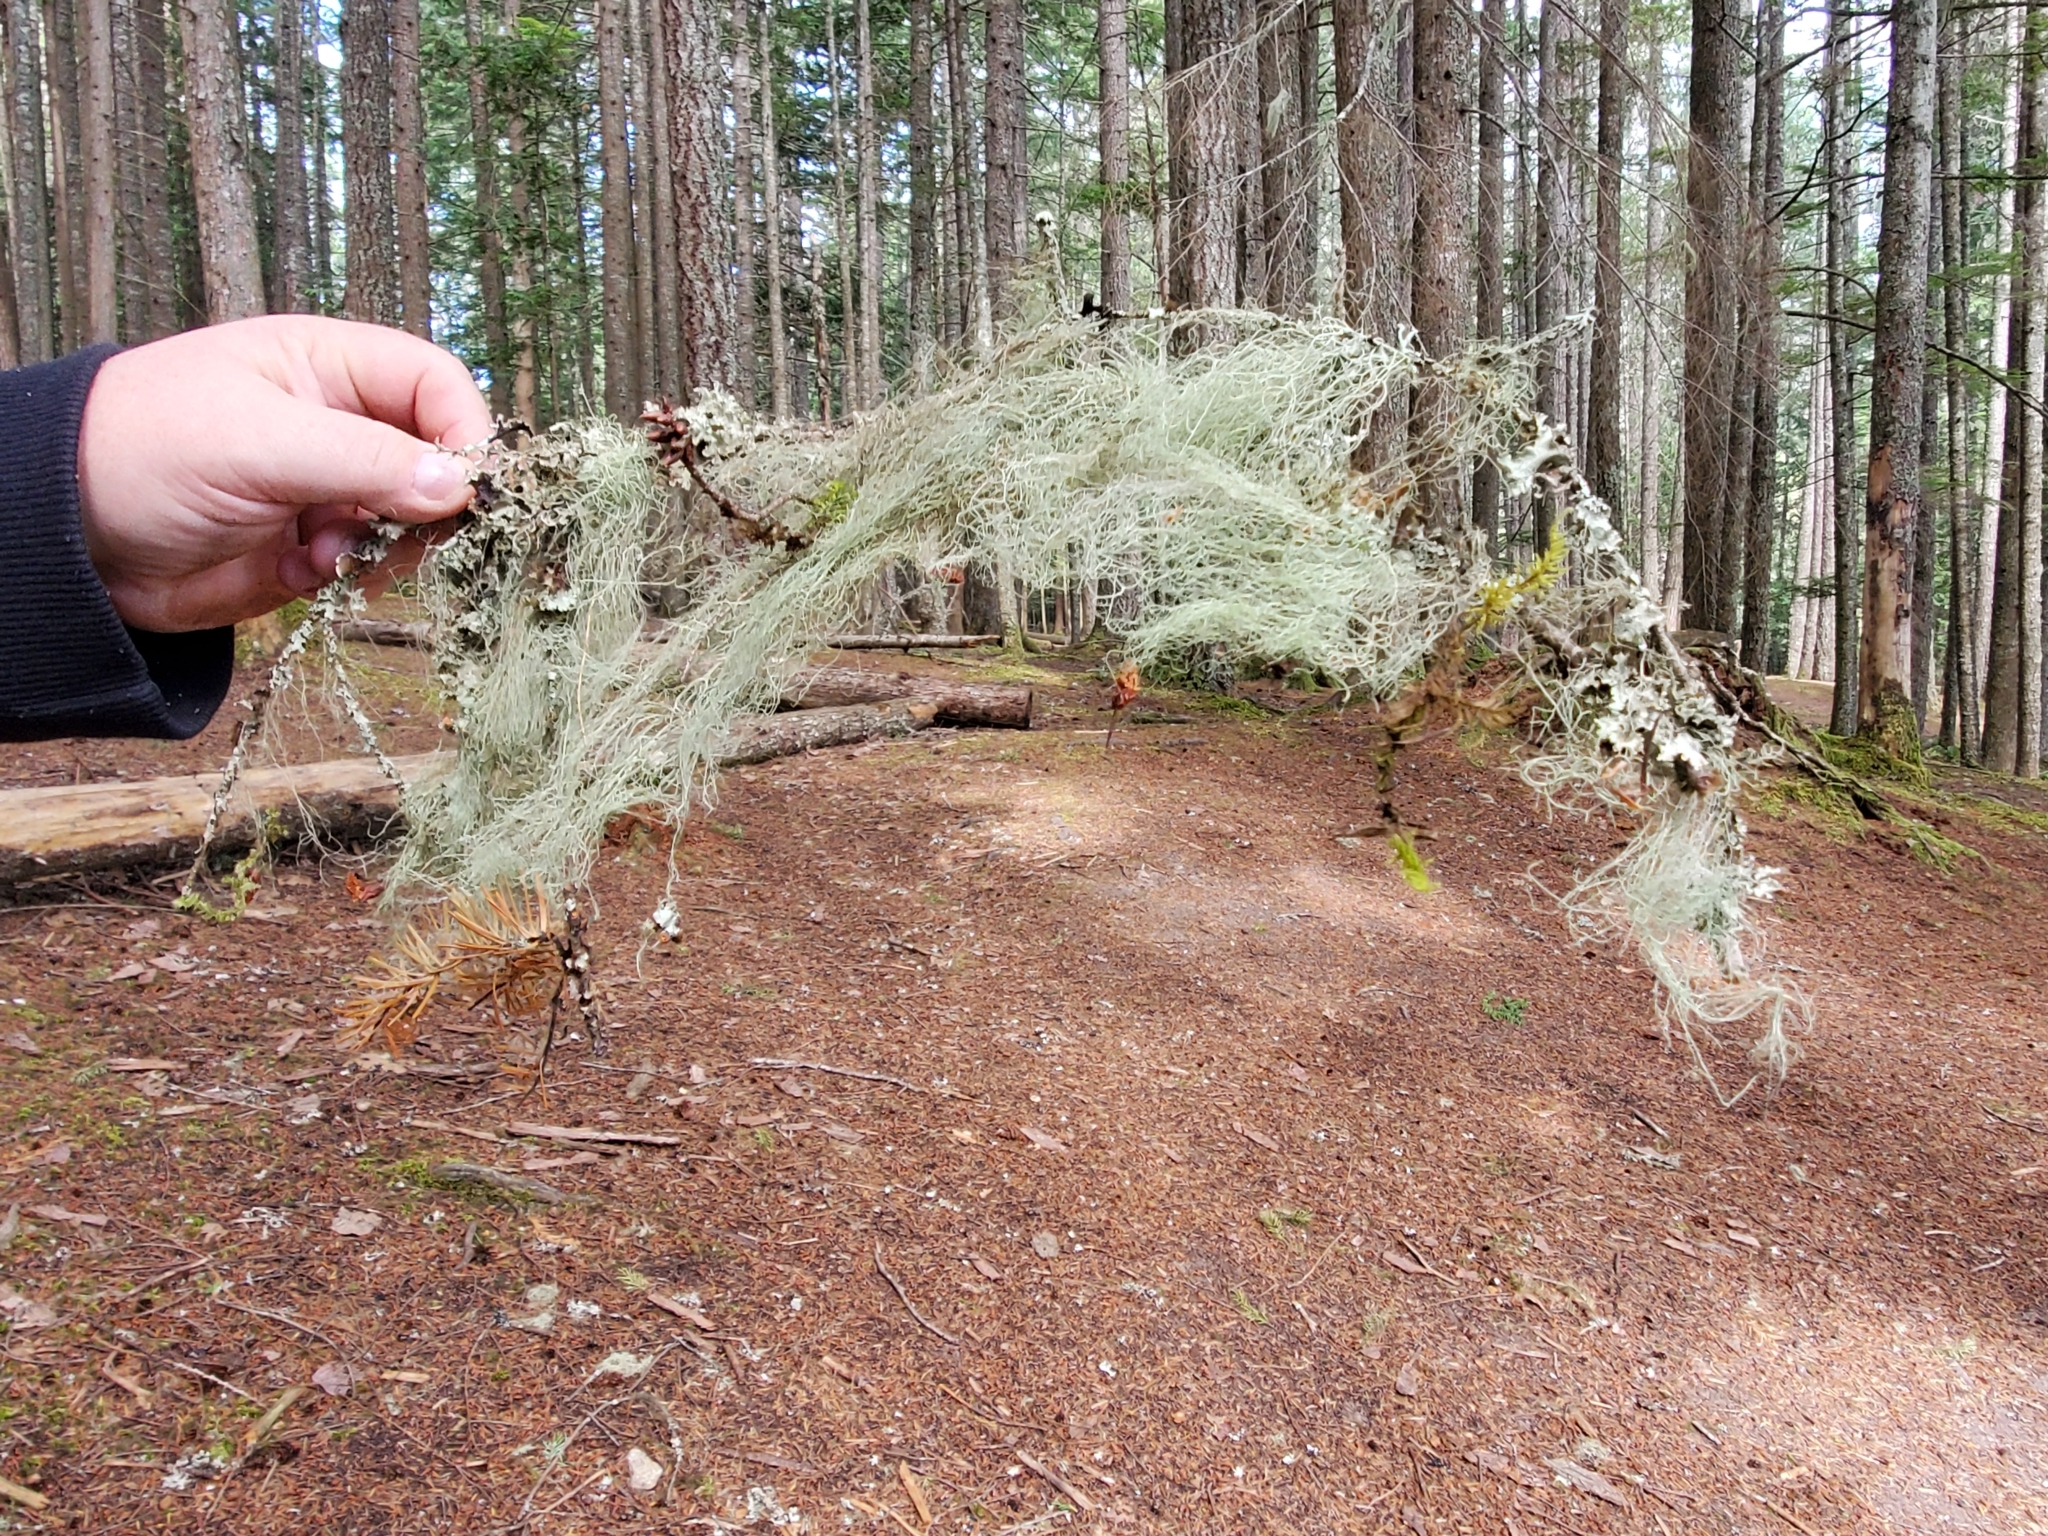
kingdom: Fungi
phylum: Ascomycota
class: Lecanoromycetes
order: Lecanorales
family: Parmeliaceae
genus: Alectoria
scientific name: Alectoria sarmentosa
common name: Witch's hair
